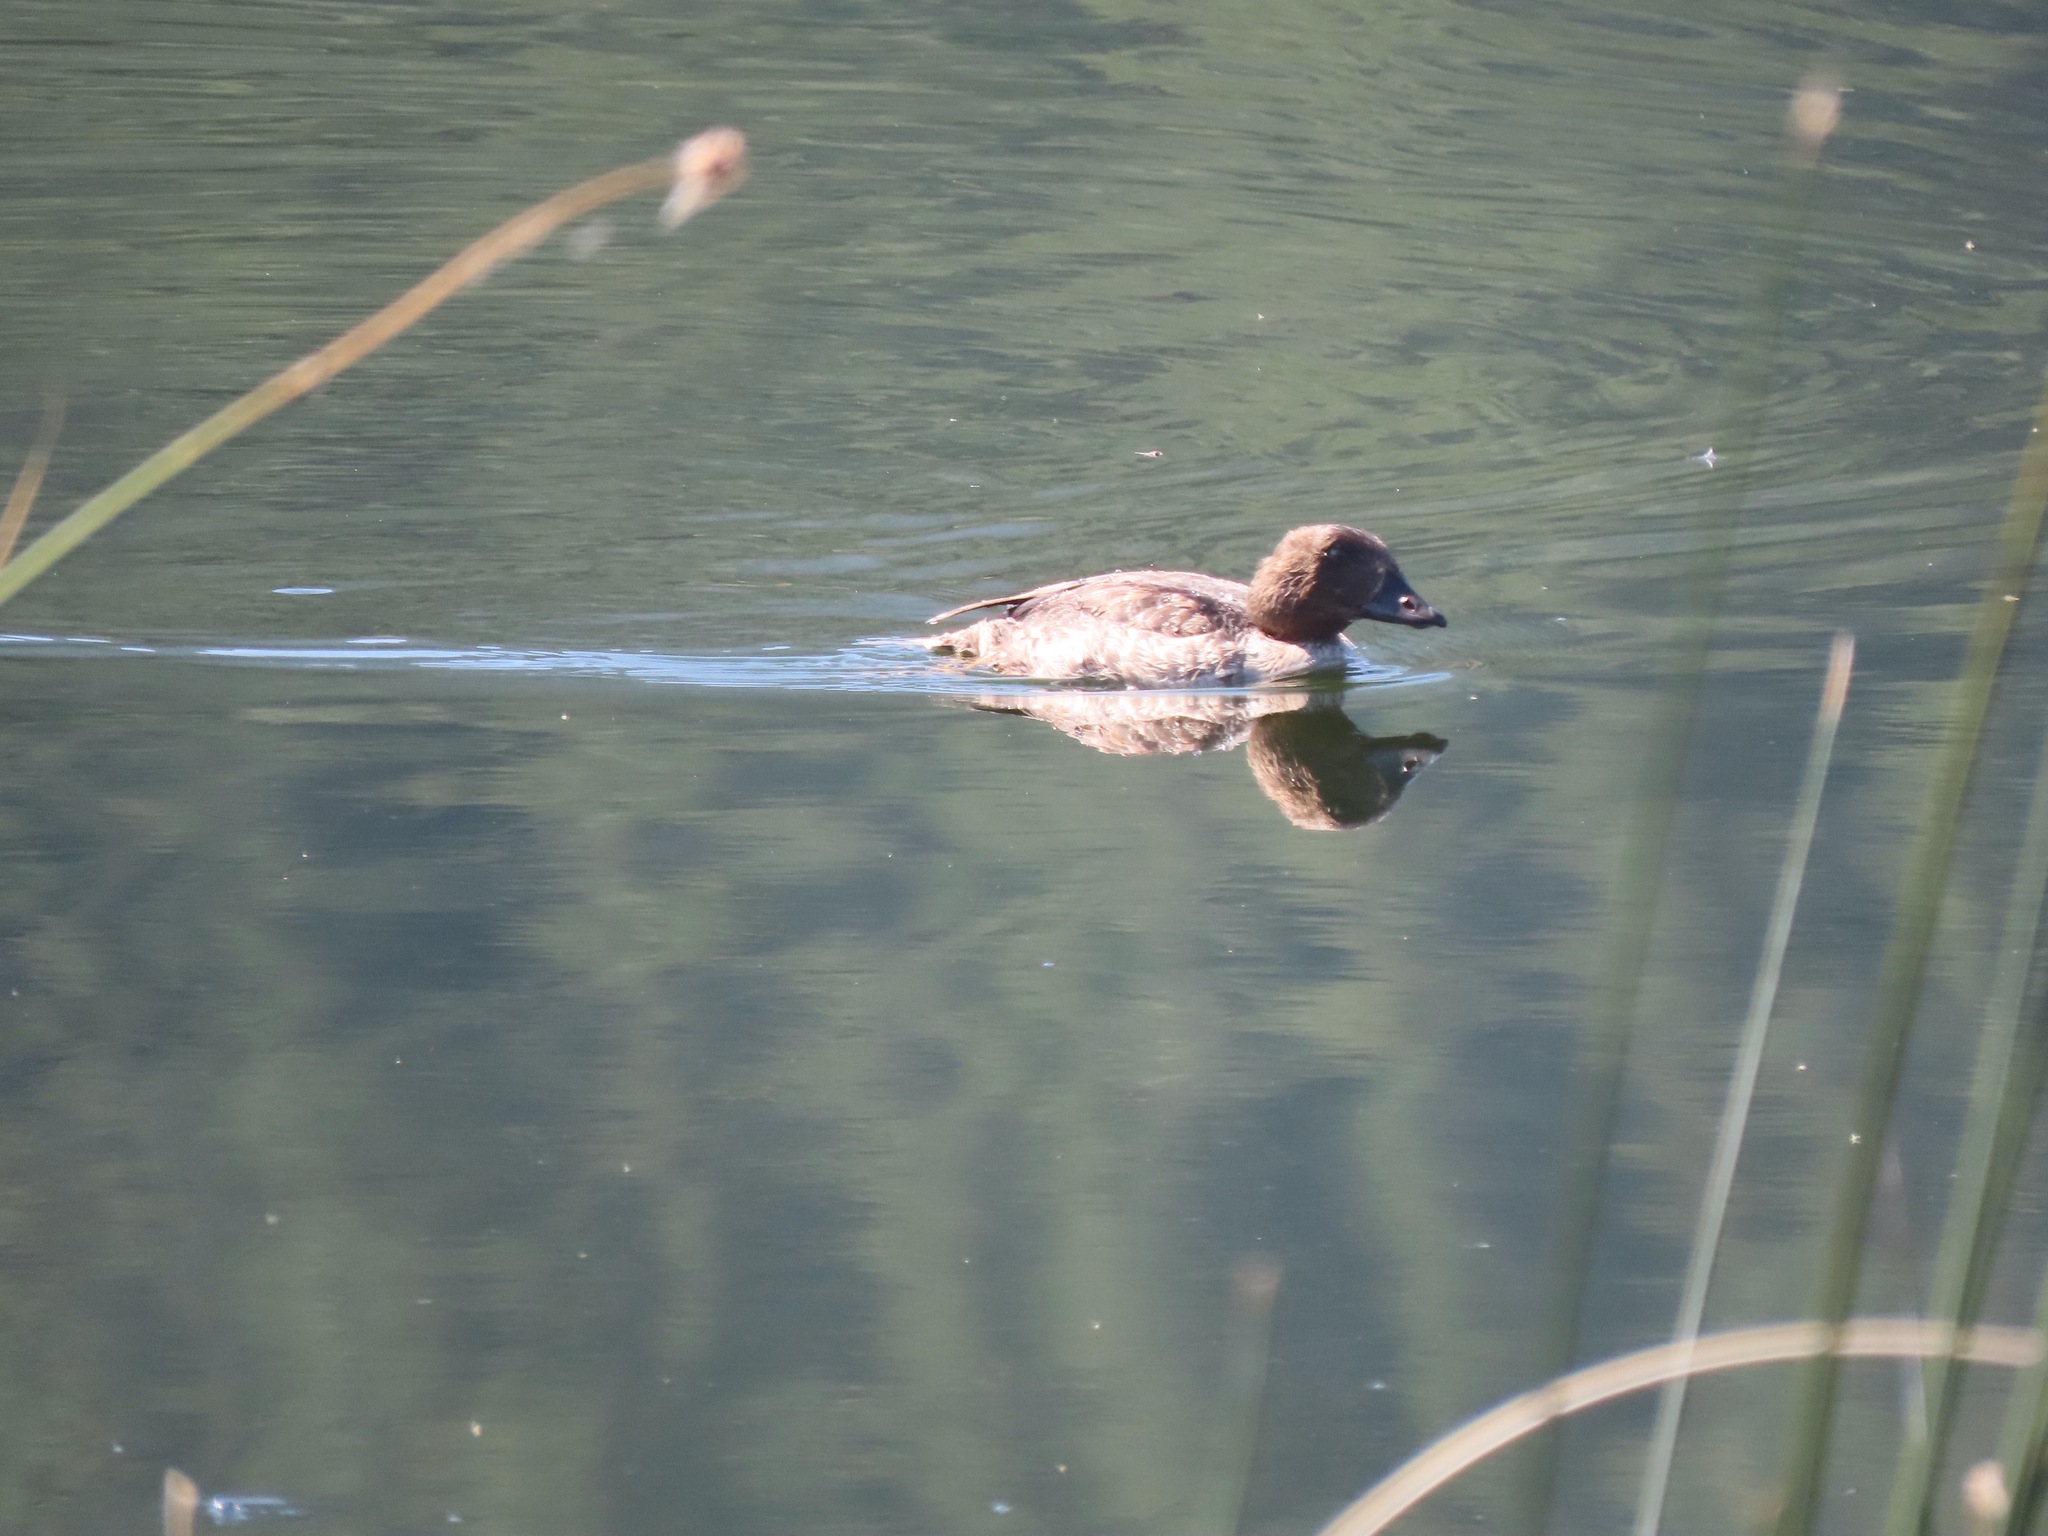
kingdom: Animalia
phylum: Chordata
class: Aves
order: Anseriformes
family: Anatidae
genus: Bucephala
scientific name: Bucephala clangula
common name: Common goldeneye
